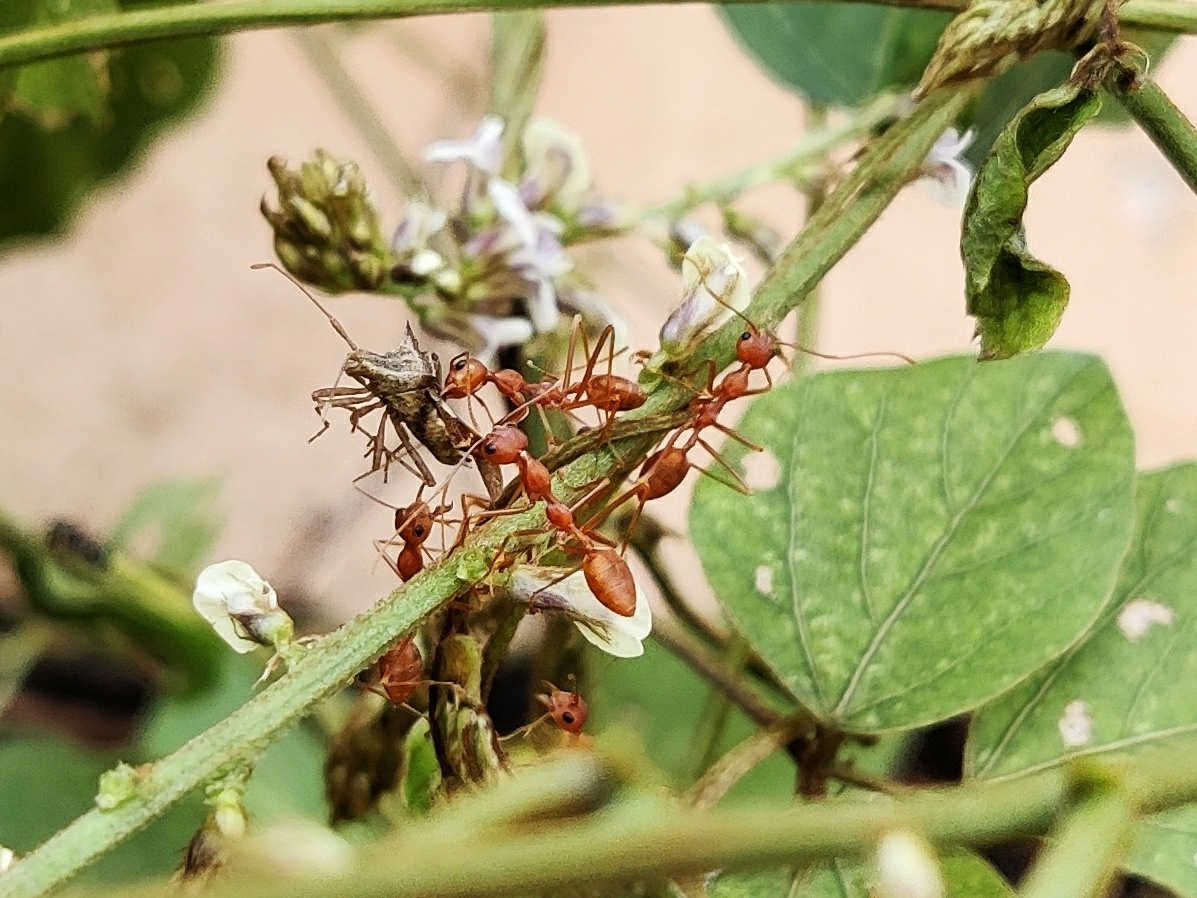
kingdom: Animalia
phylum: Arthropoda
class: Insecta
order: Hymenoptera
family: Formicidae
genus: Oecophylla
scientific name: Oecophylla smaragdina
